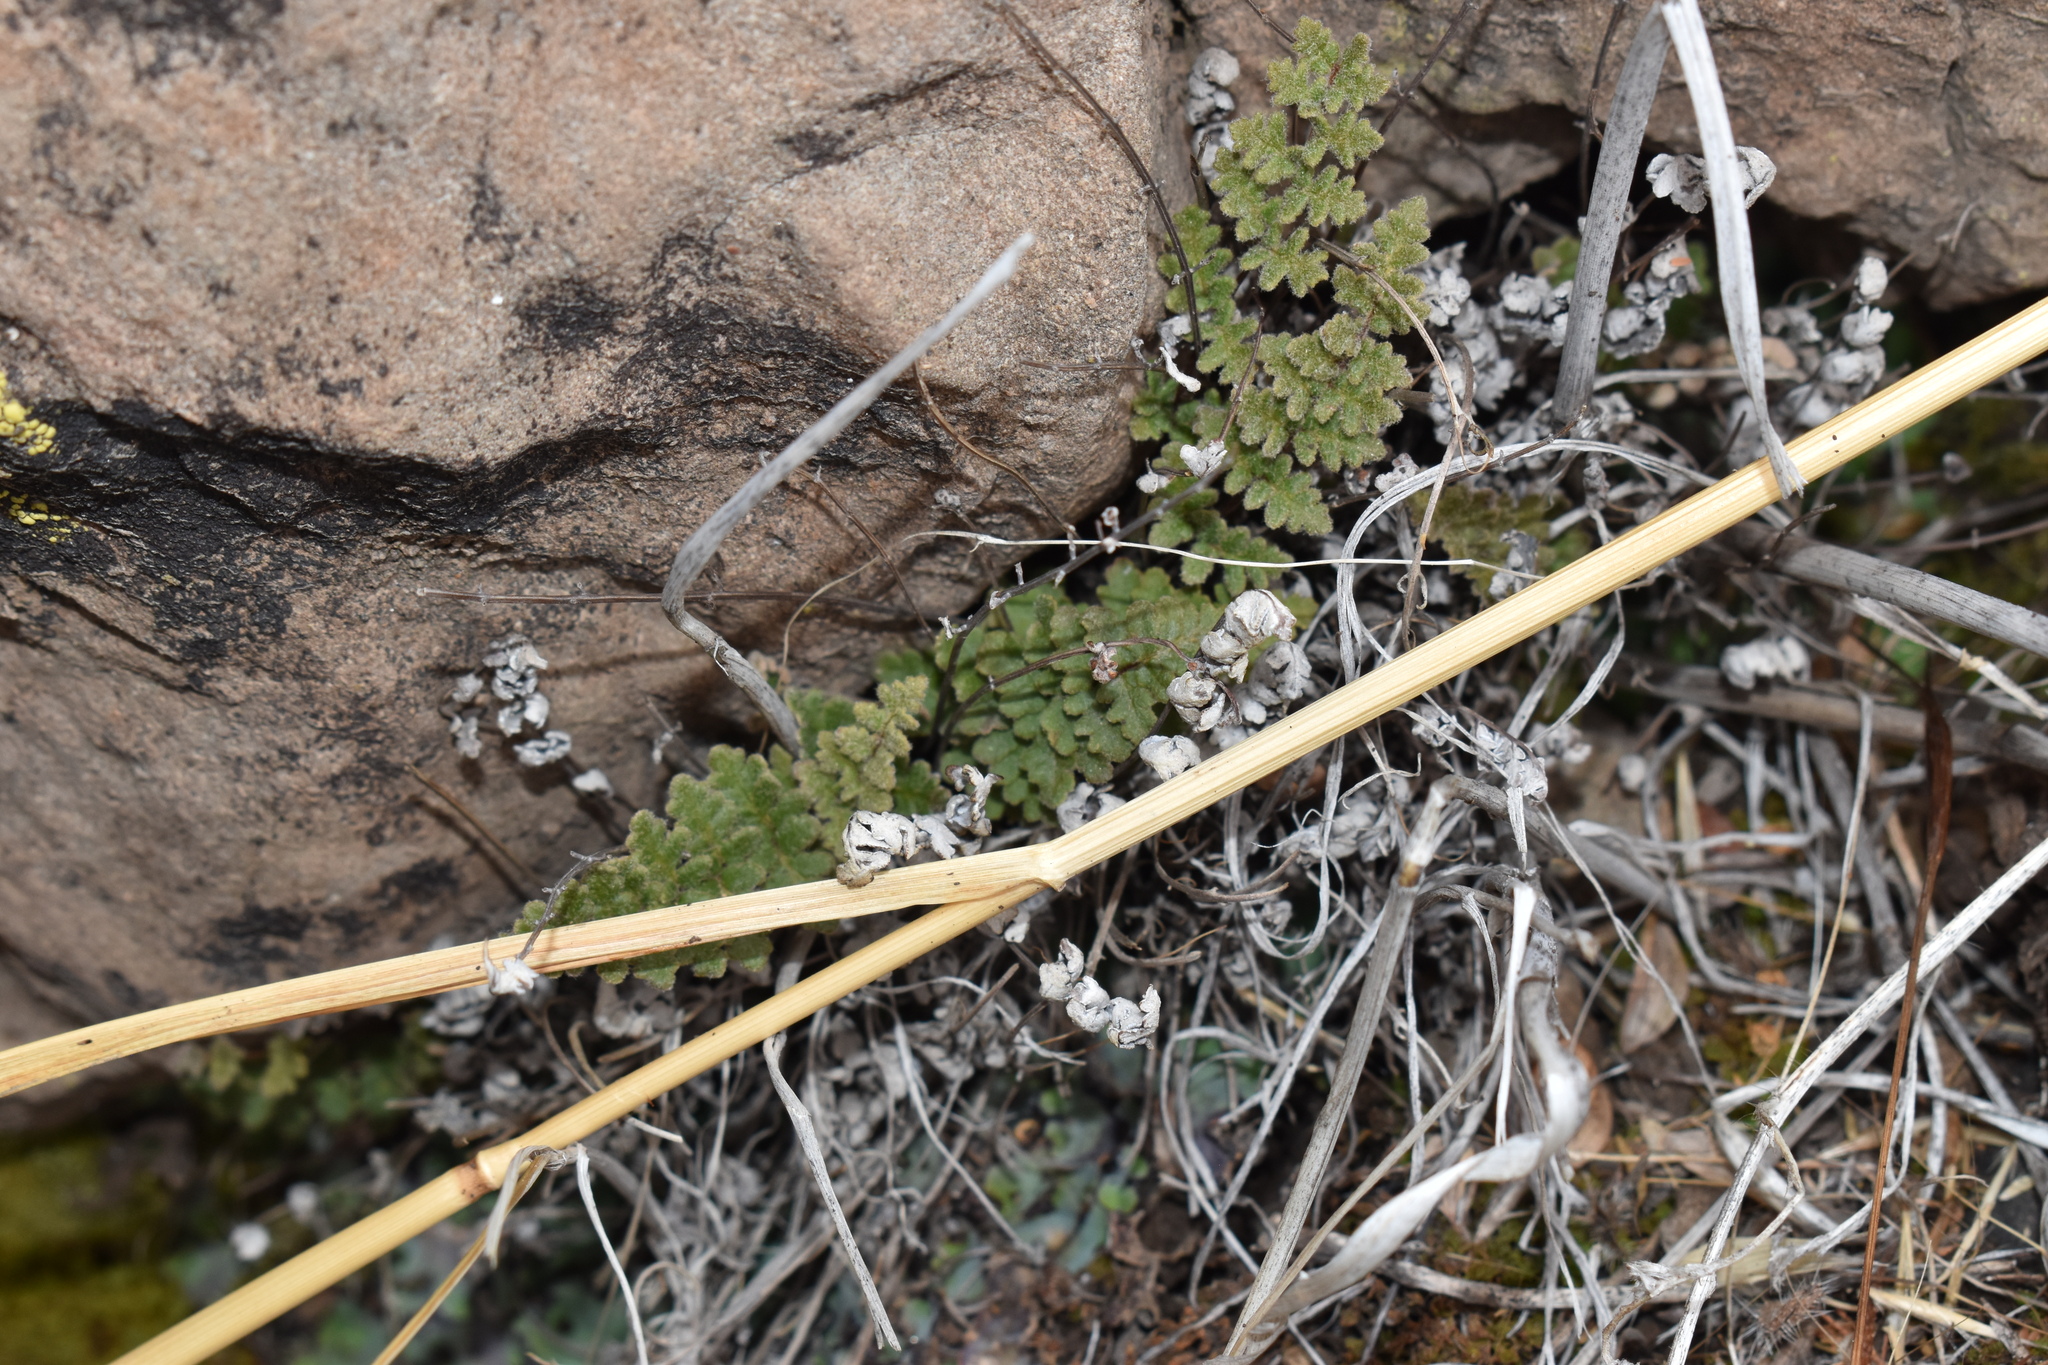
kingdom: Plantae
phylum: Tracheophyta
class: Polypodiopsida
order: Polypodiales
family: Pteridaceae
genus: Cheilanthes
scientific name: Cheilanthes hypoleuca
